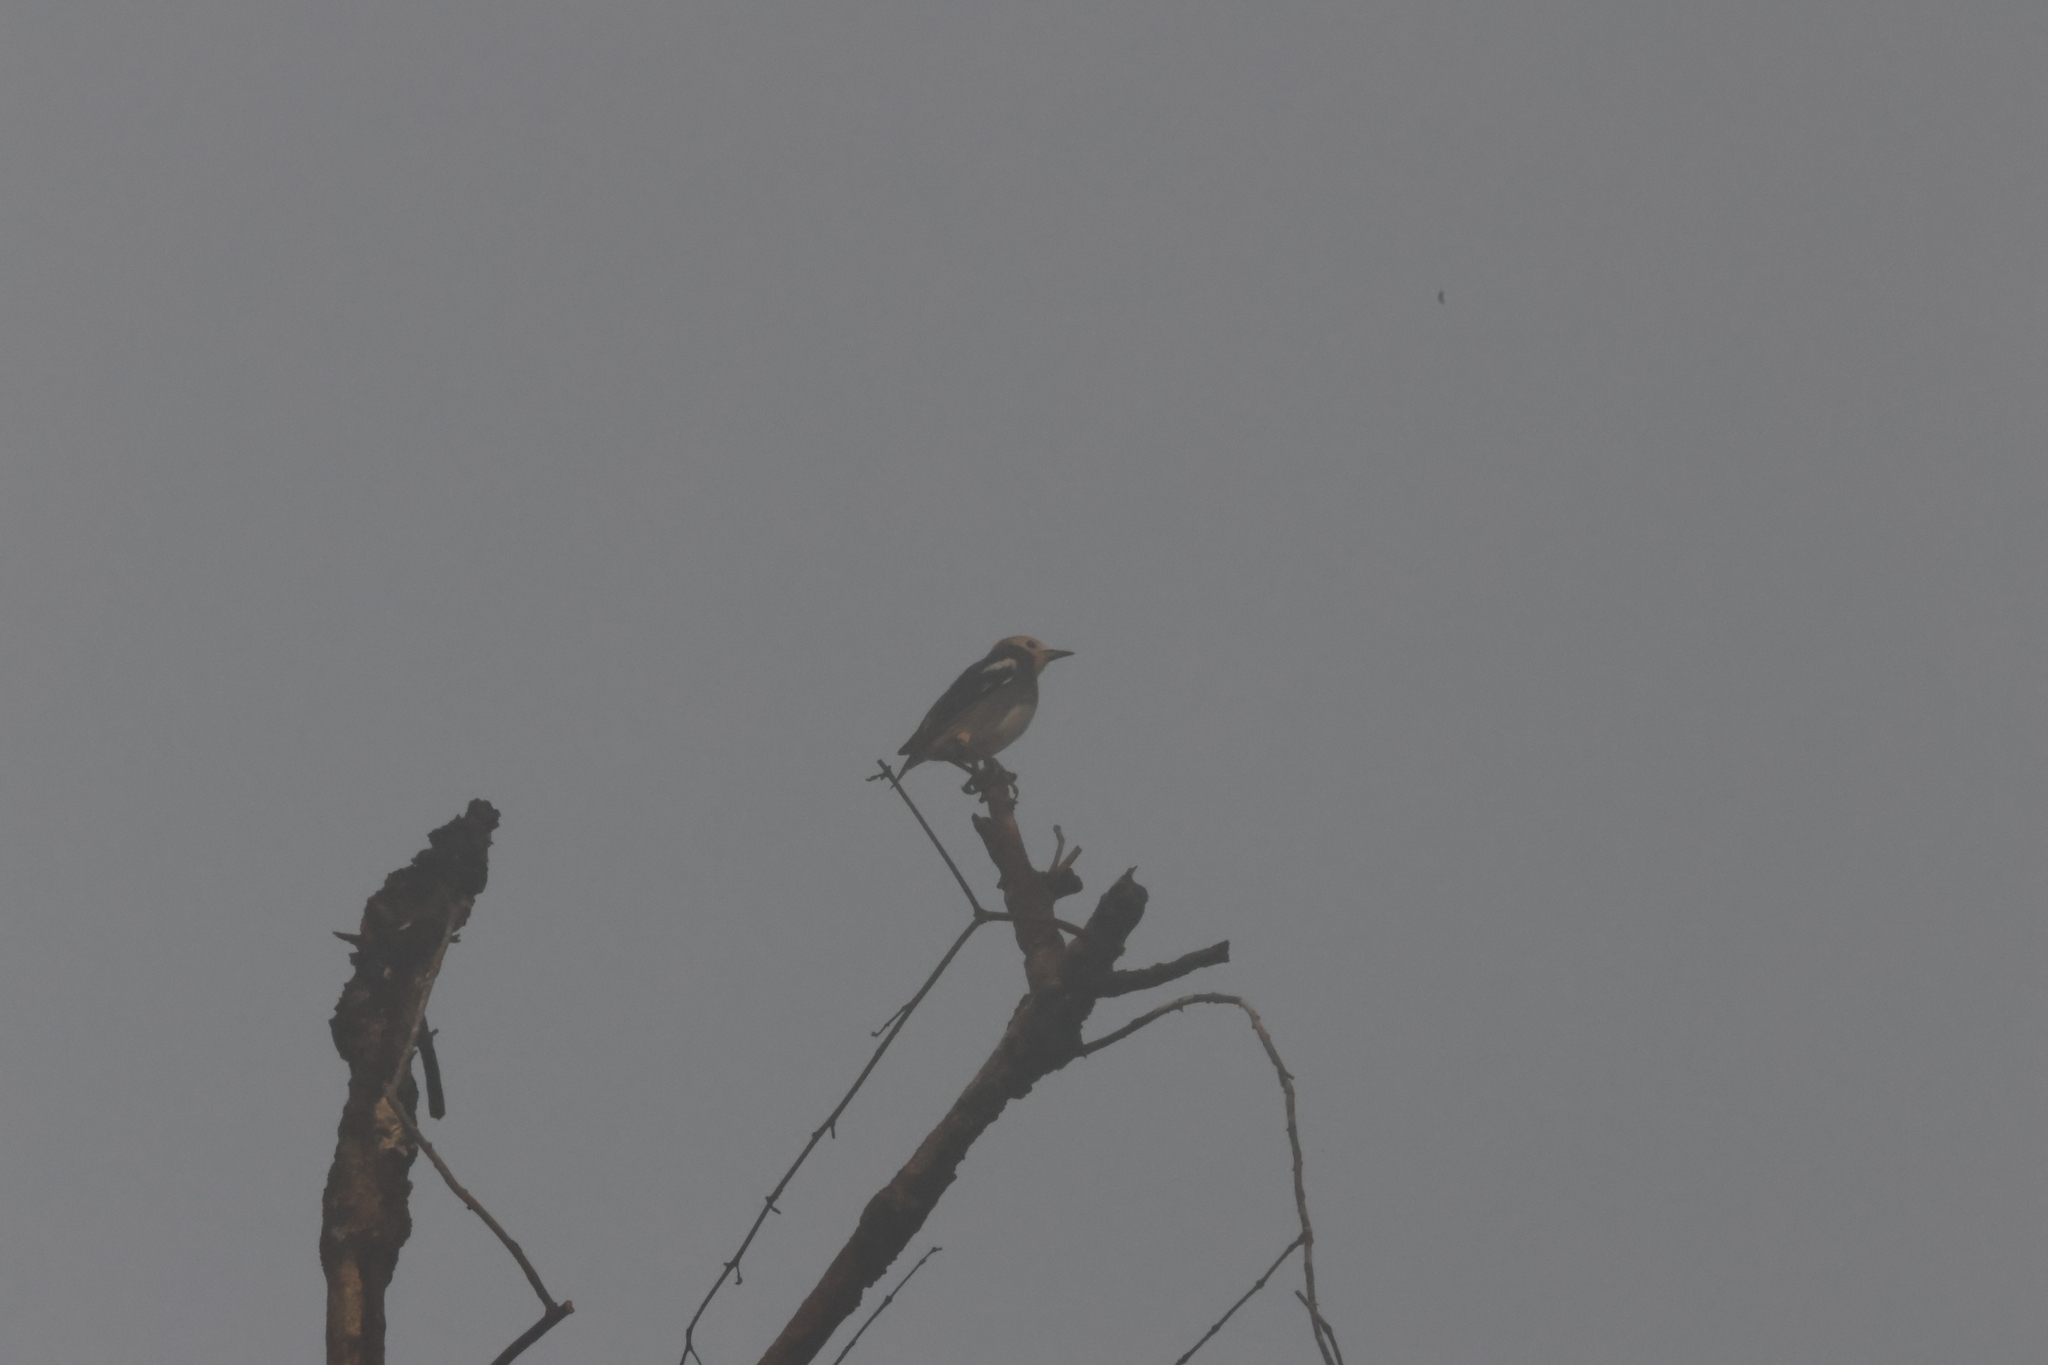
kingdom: Animalia
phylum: Chordata
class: Aves
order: Passeriformes
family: Sturnidae
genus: Agropsar
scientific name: Agropsar philippensis
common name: Chestnut-cheeked starling
